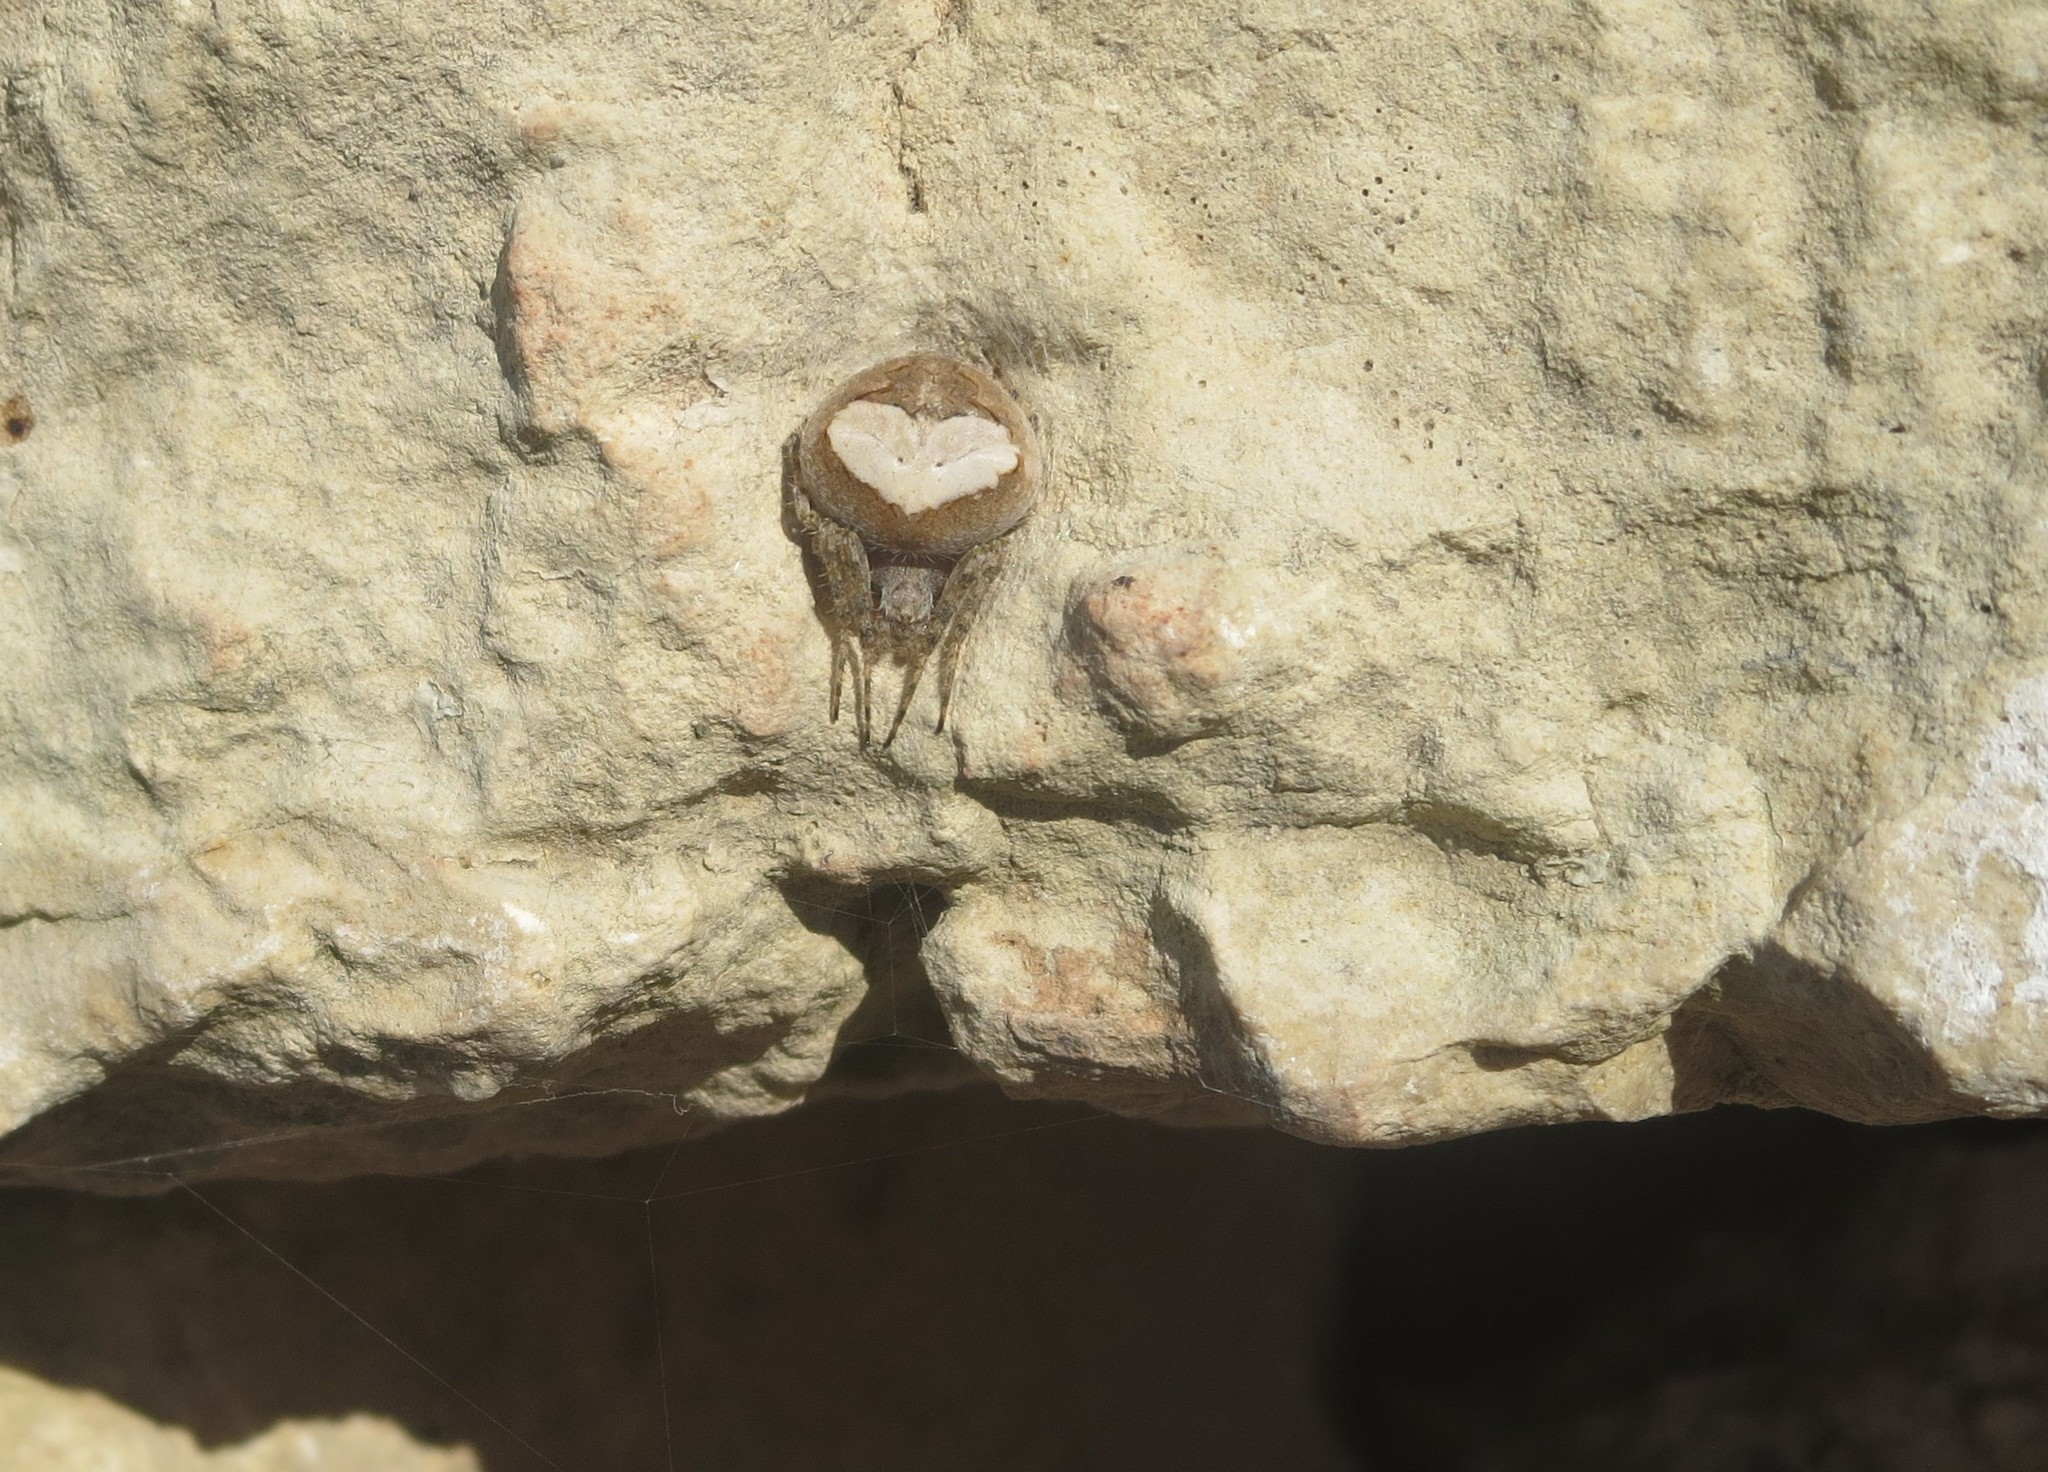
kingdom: Animalia
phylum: Arthropoda
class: Arachnida
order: Araneae
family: Araneidae
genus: Neoscona
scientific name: Neoscona subfusca
